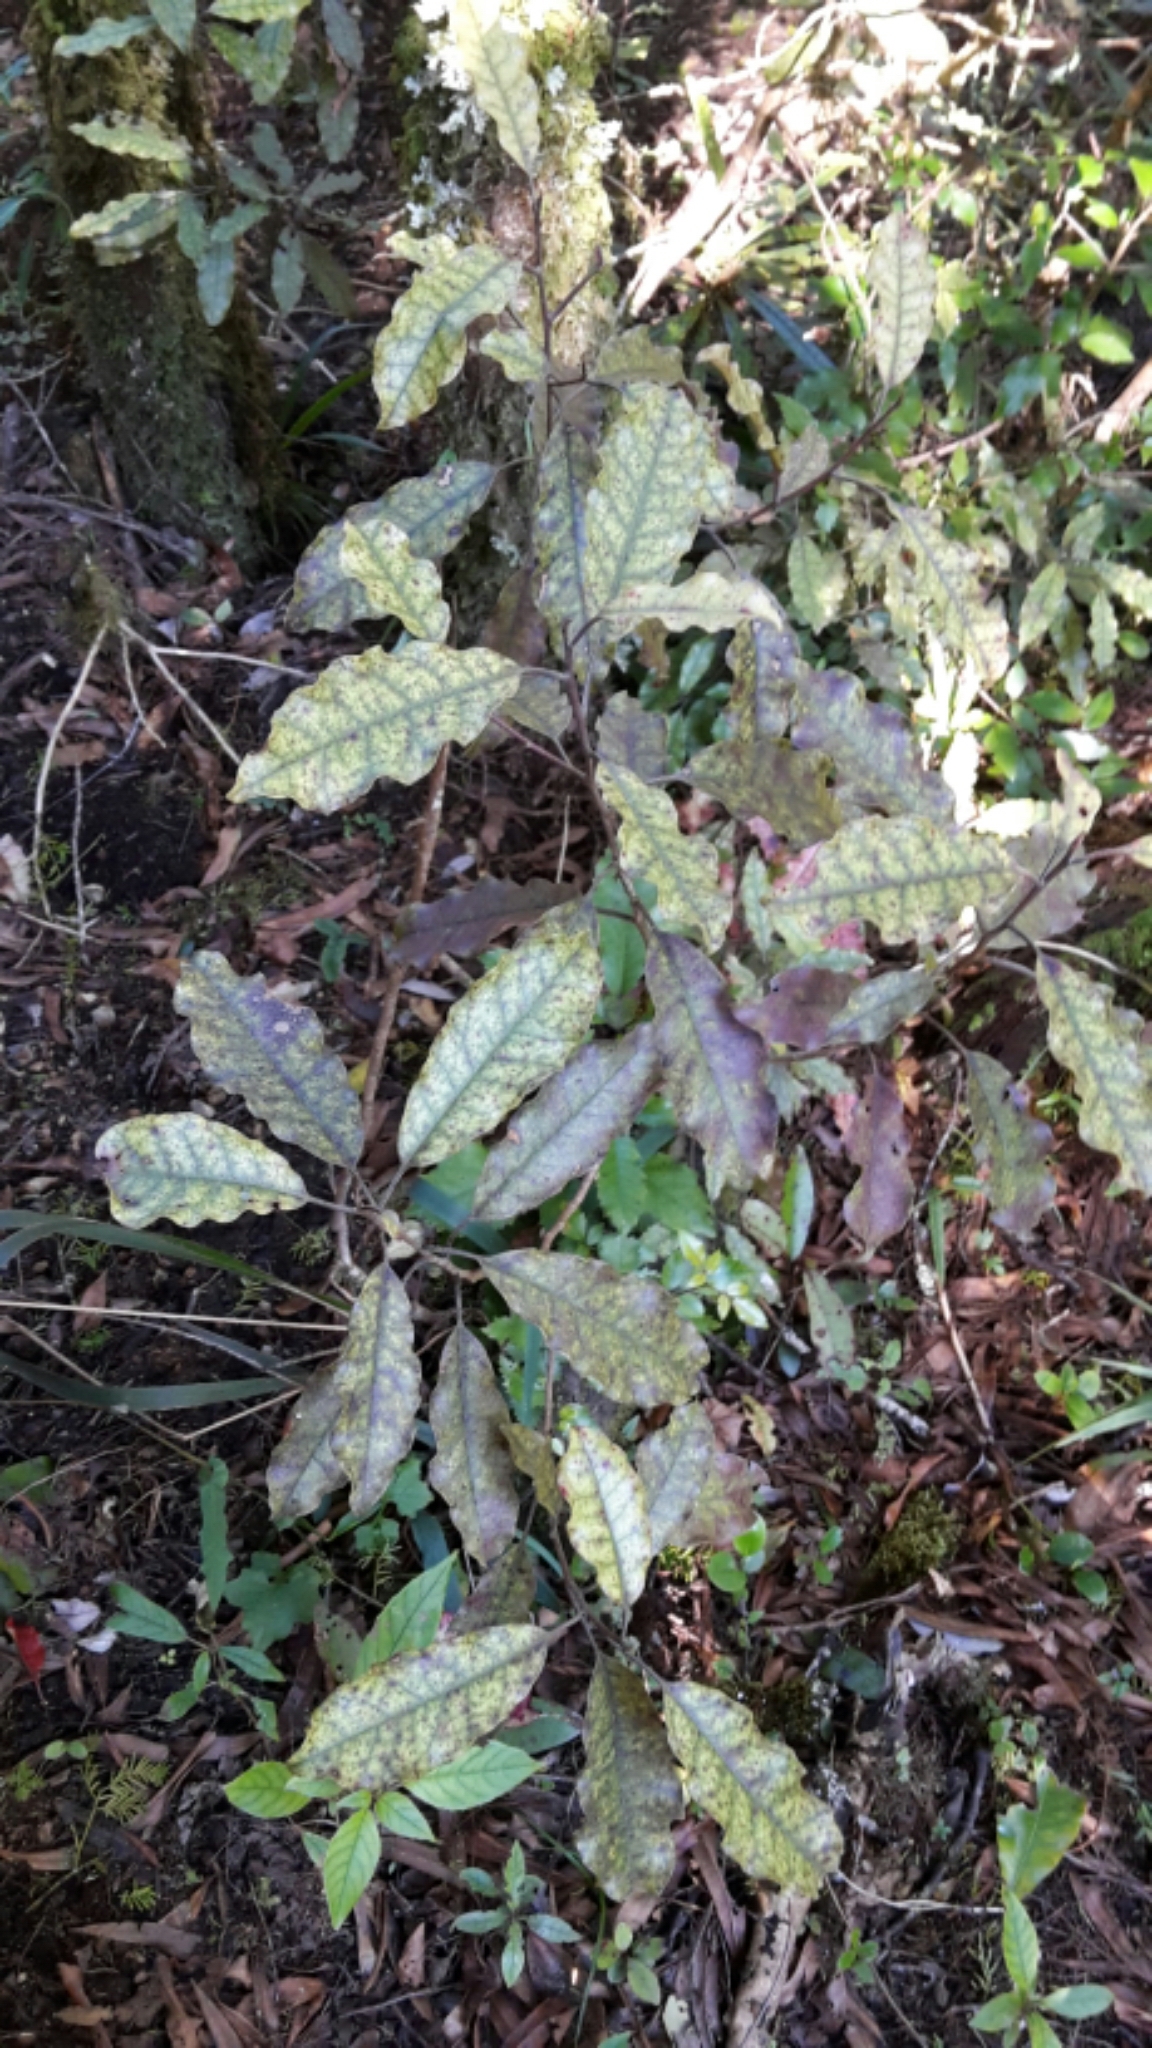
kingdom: Plantae
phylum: Tracheophyta
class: Magnoliopsida
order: Paracryphiales
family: Paracryphiaceae
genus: Quintinia
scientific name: Quintinia serrata
